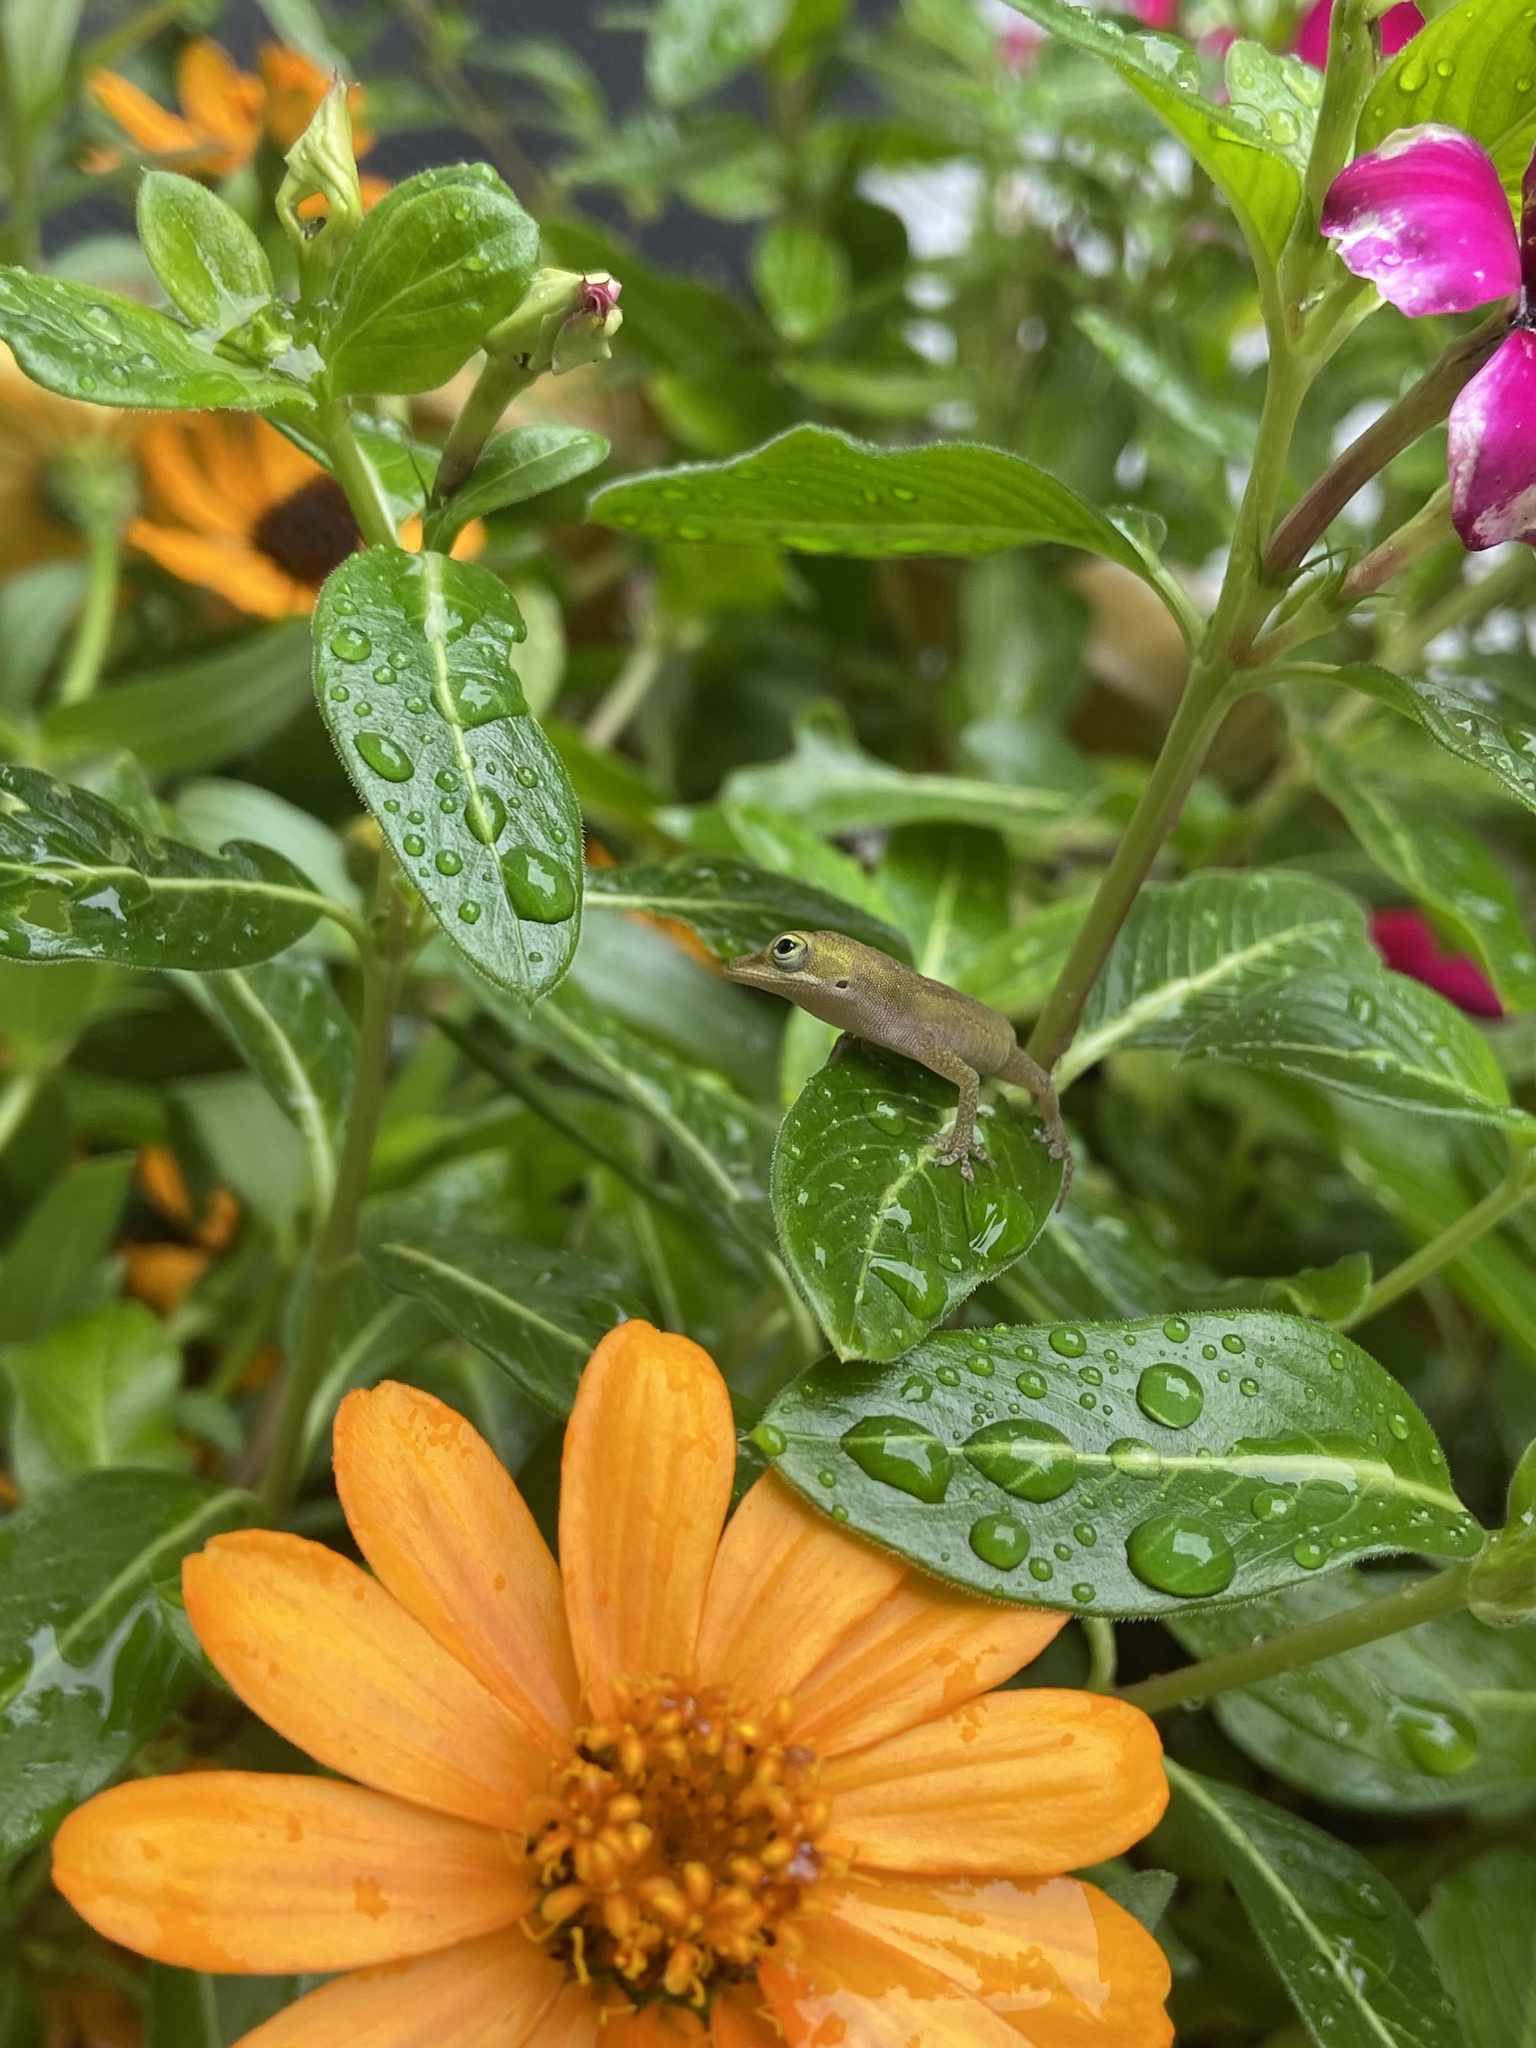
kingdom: Animalia
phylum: Chordata
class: Squamata
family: Dactyloidae
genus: Anolis
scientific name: Anolis carolinensis
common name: Green anole
